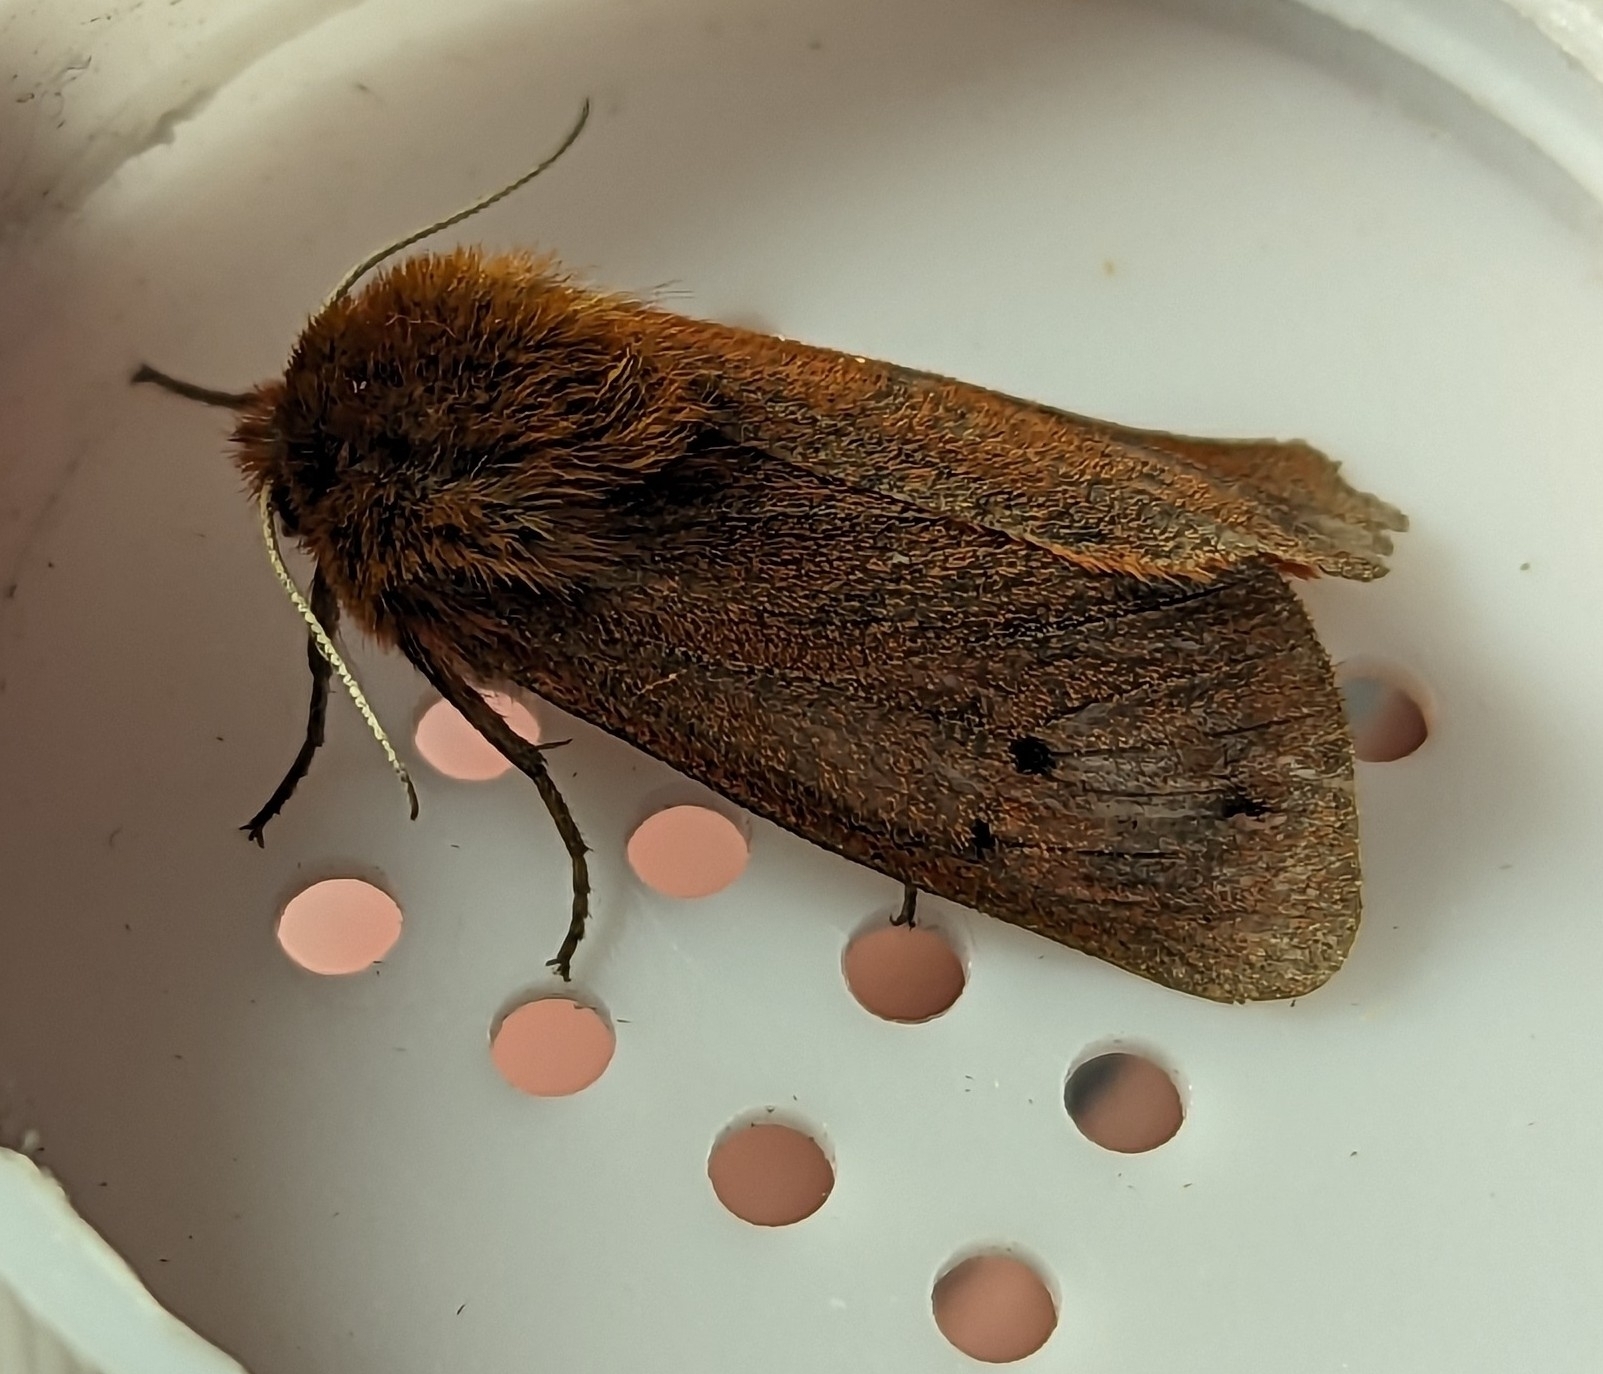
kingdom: Animalia
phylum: Arthropoda
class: Insecta
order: Lepidoptera
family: Erebidae
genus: Phragmatobia
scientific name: Phragmatobia fuliginosa
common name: Ruby tiger
